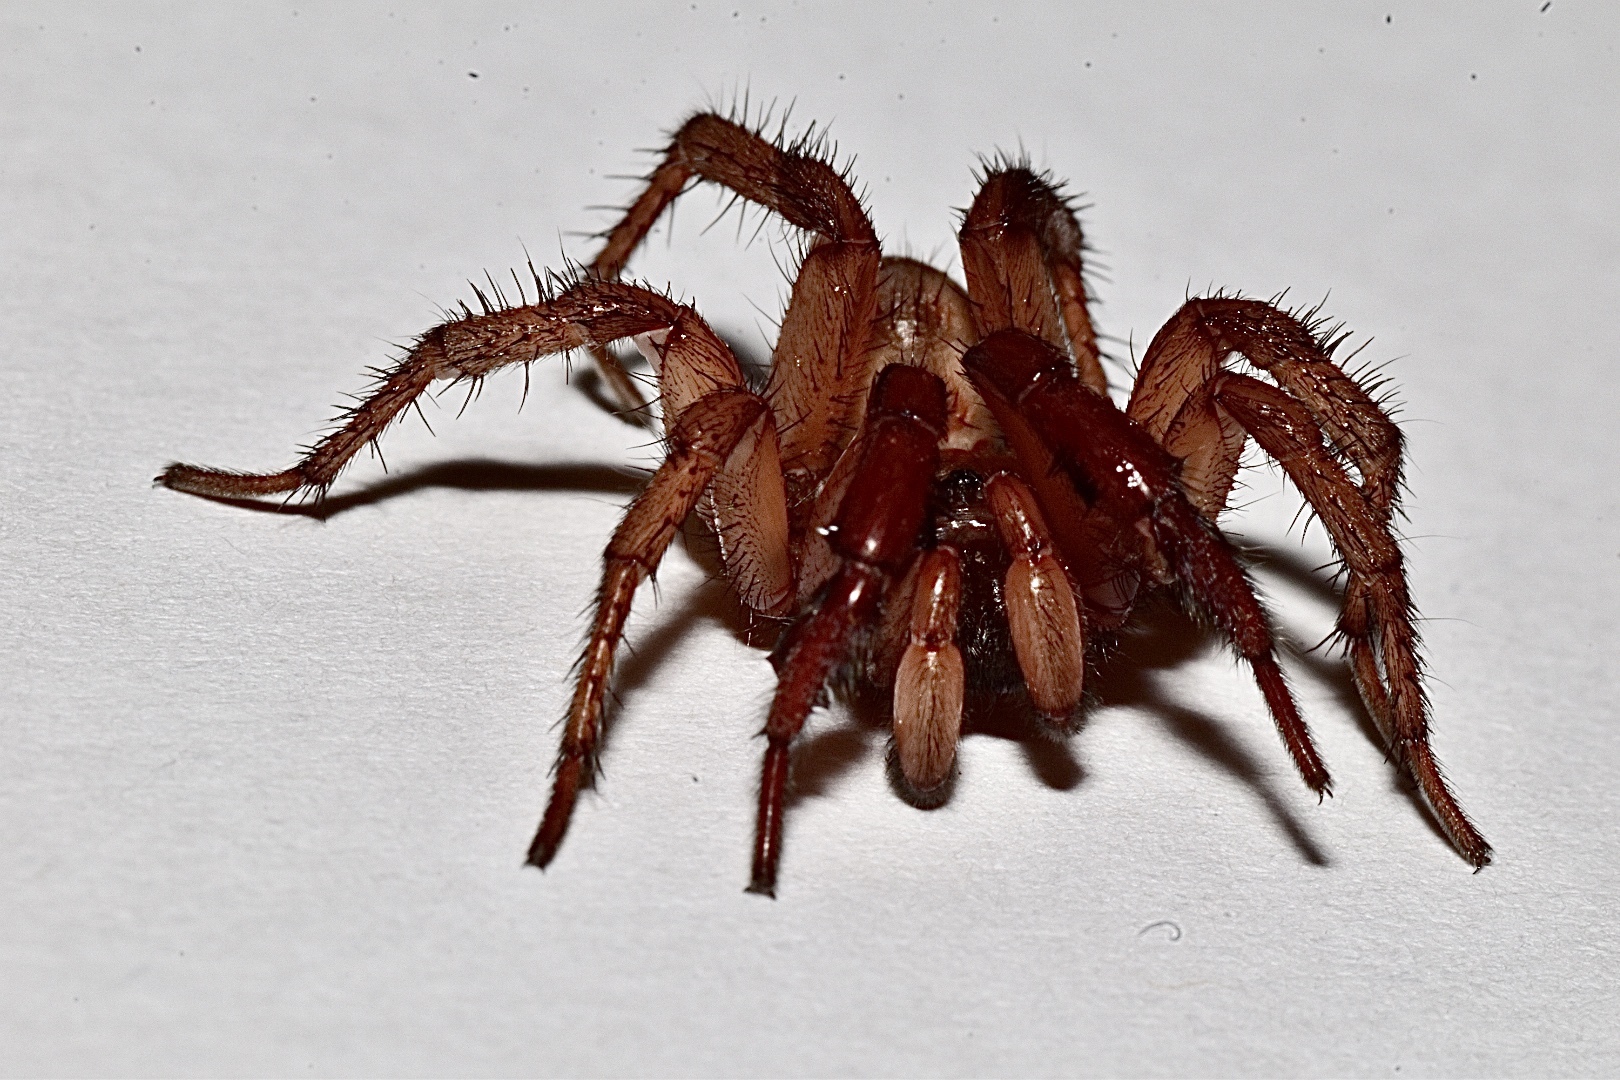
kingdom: Animalia
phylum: Arthropoda
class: Arachnida
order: Araneae
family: Antrodiaetidae
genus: Antrodiaetus
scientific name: Antrodiaetus pugnax
